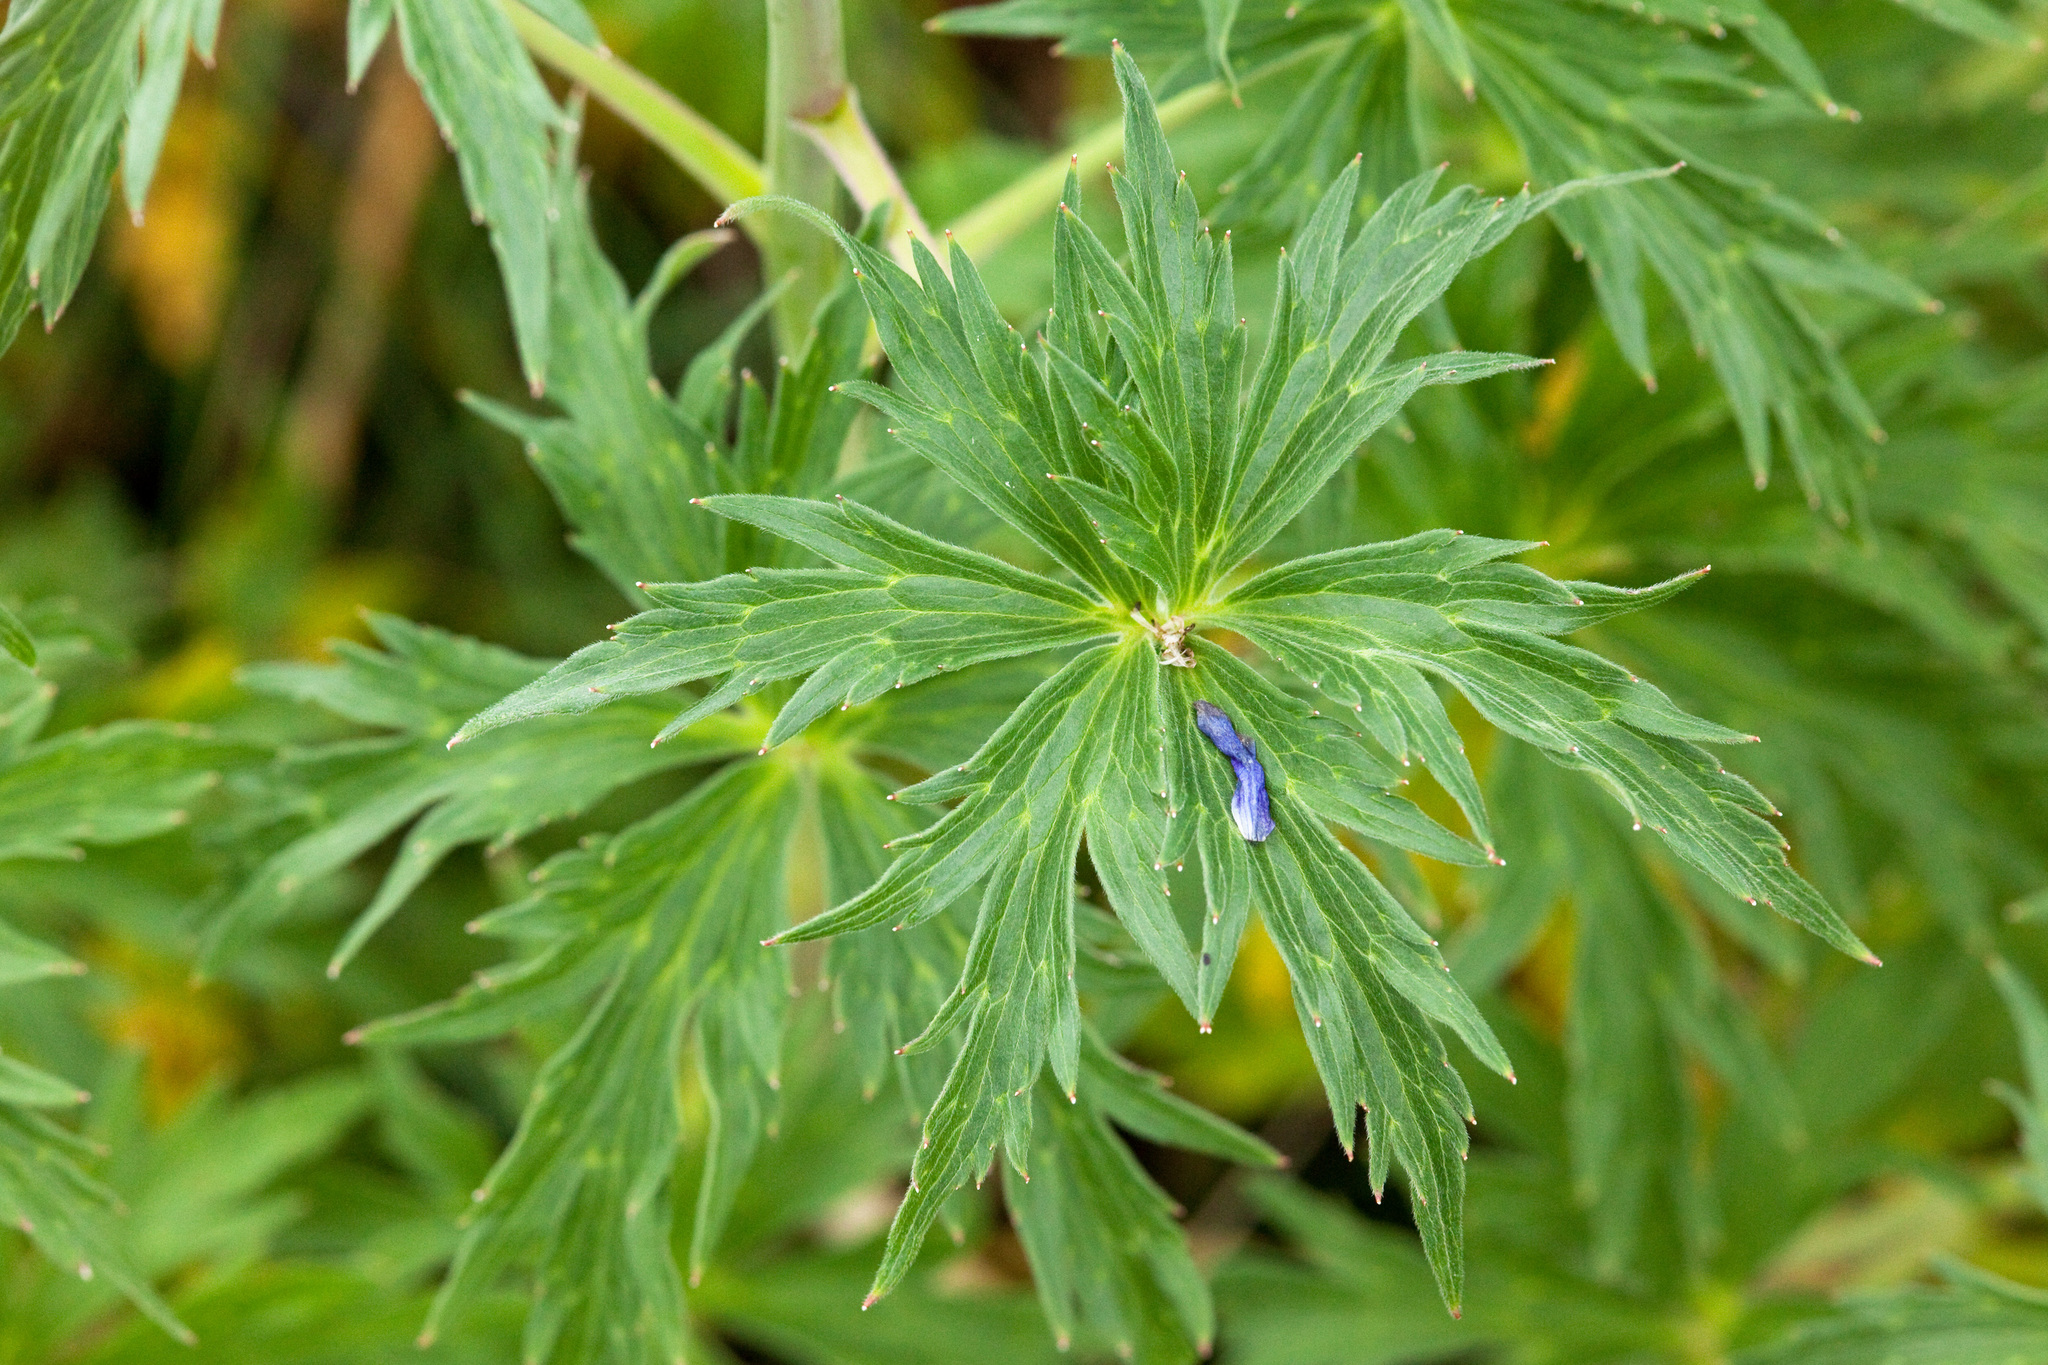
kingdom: Plantae
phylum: Tracheophyta
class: Magnoliopsida
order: Ranunculales
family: Ranunculaceae
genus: Delphinium
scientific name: Delphinium geraniifolium
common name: Mogollon larkspur
